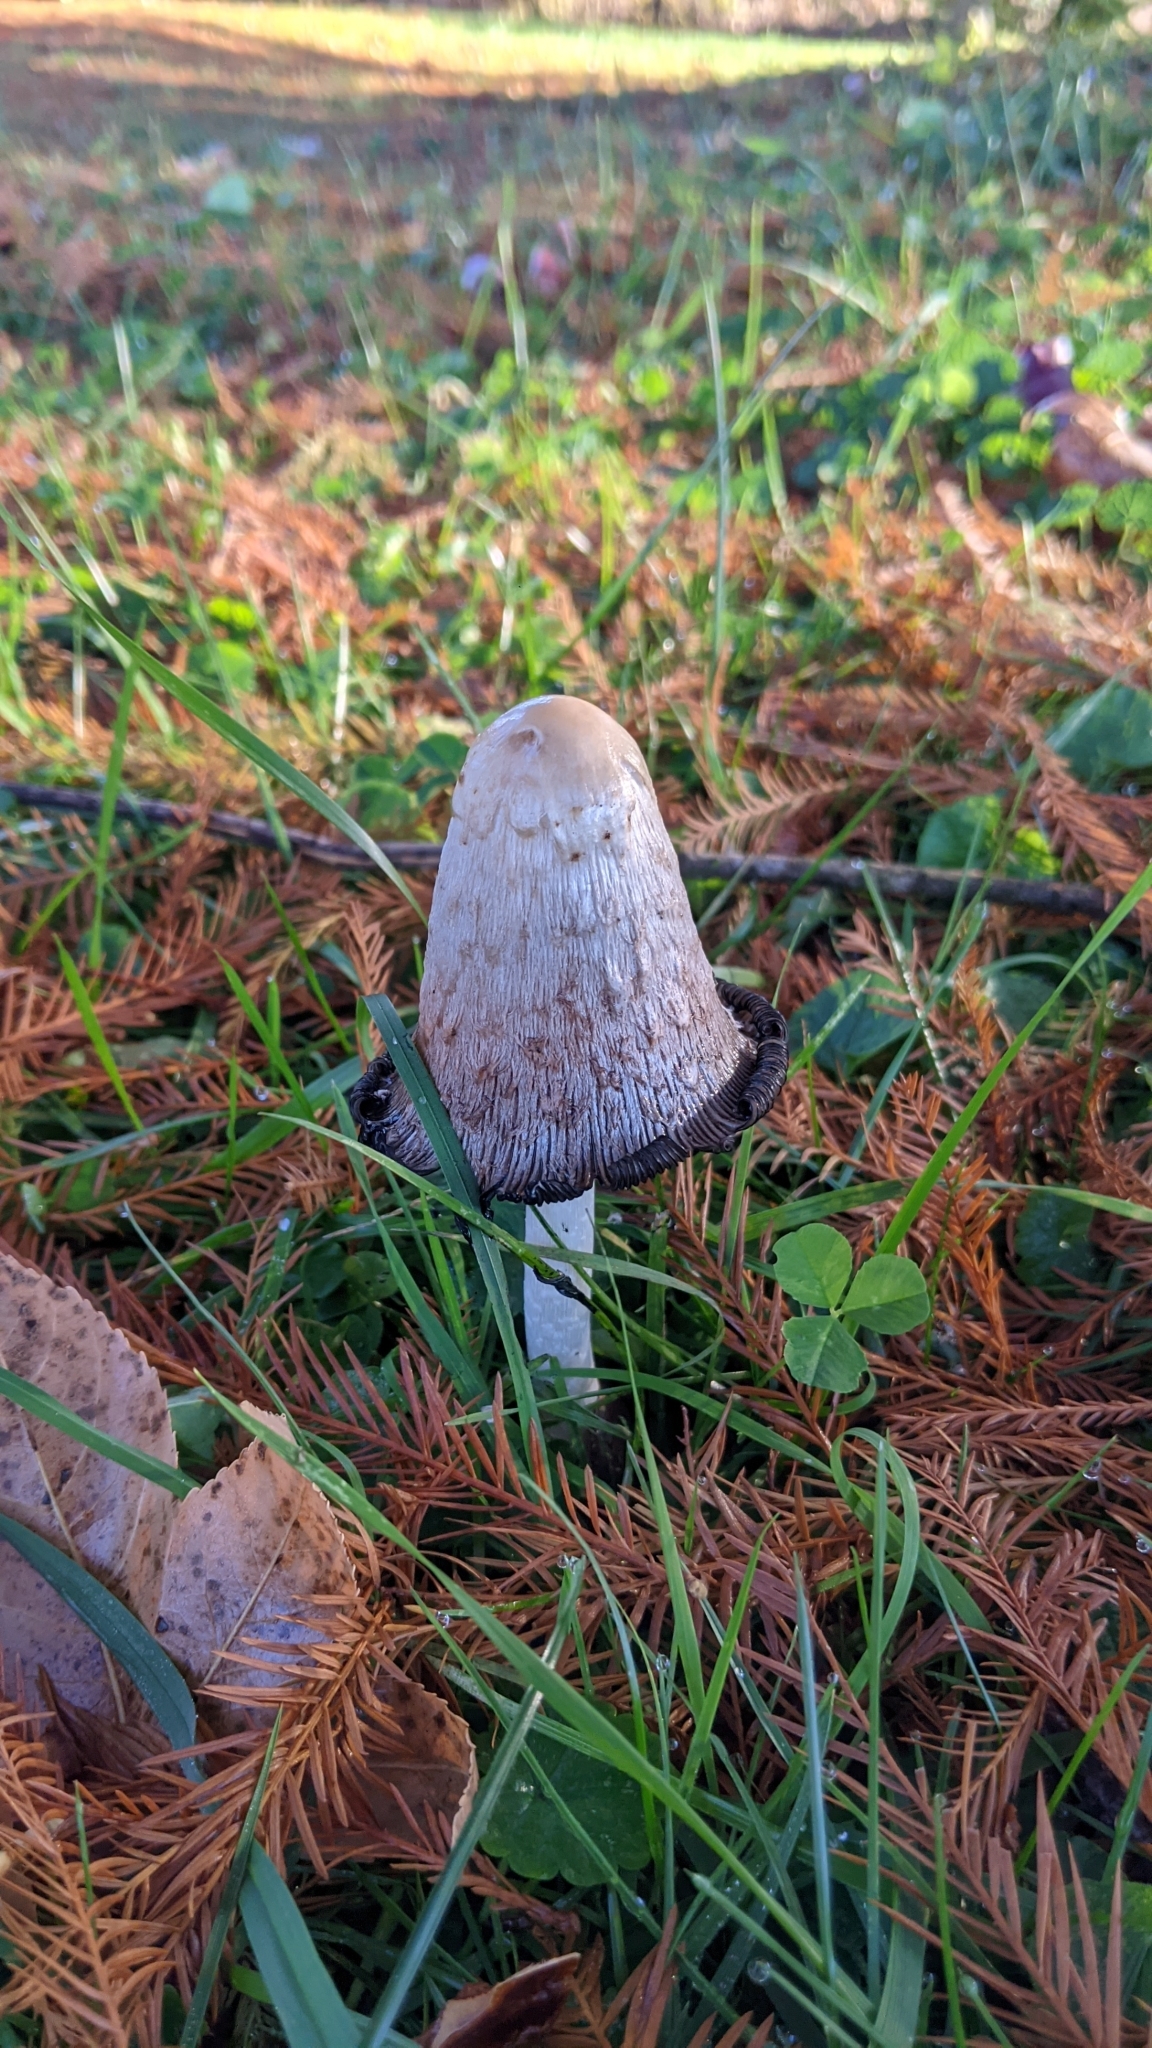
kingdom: Fungi
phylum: Basidiomycota
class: Agaricomycetes
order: Agaricales
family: Agaricaceae
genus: Coprinus
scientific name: Coprinus comatus
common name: Lawyer's wig
